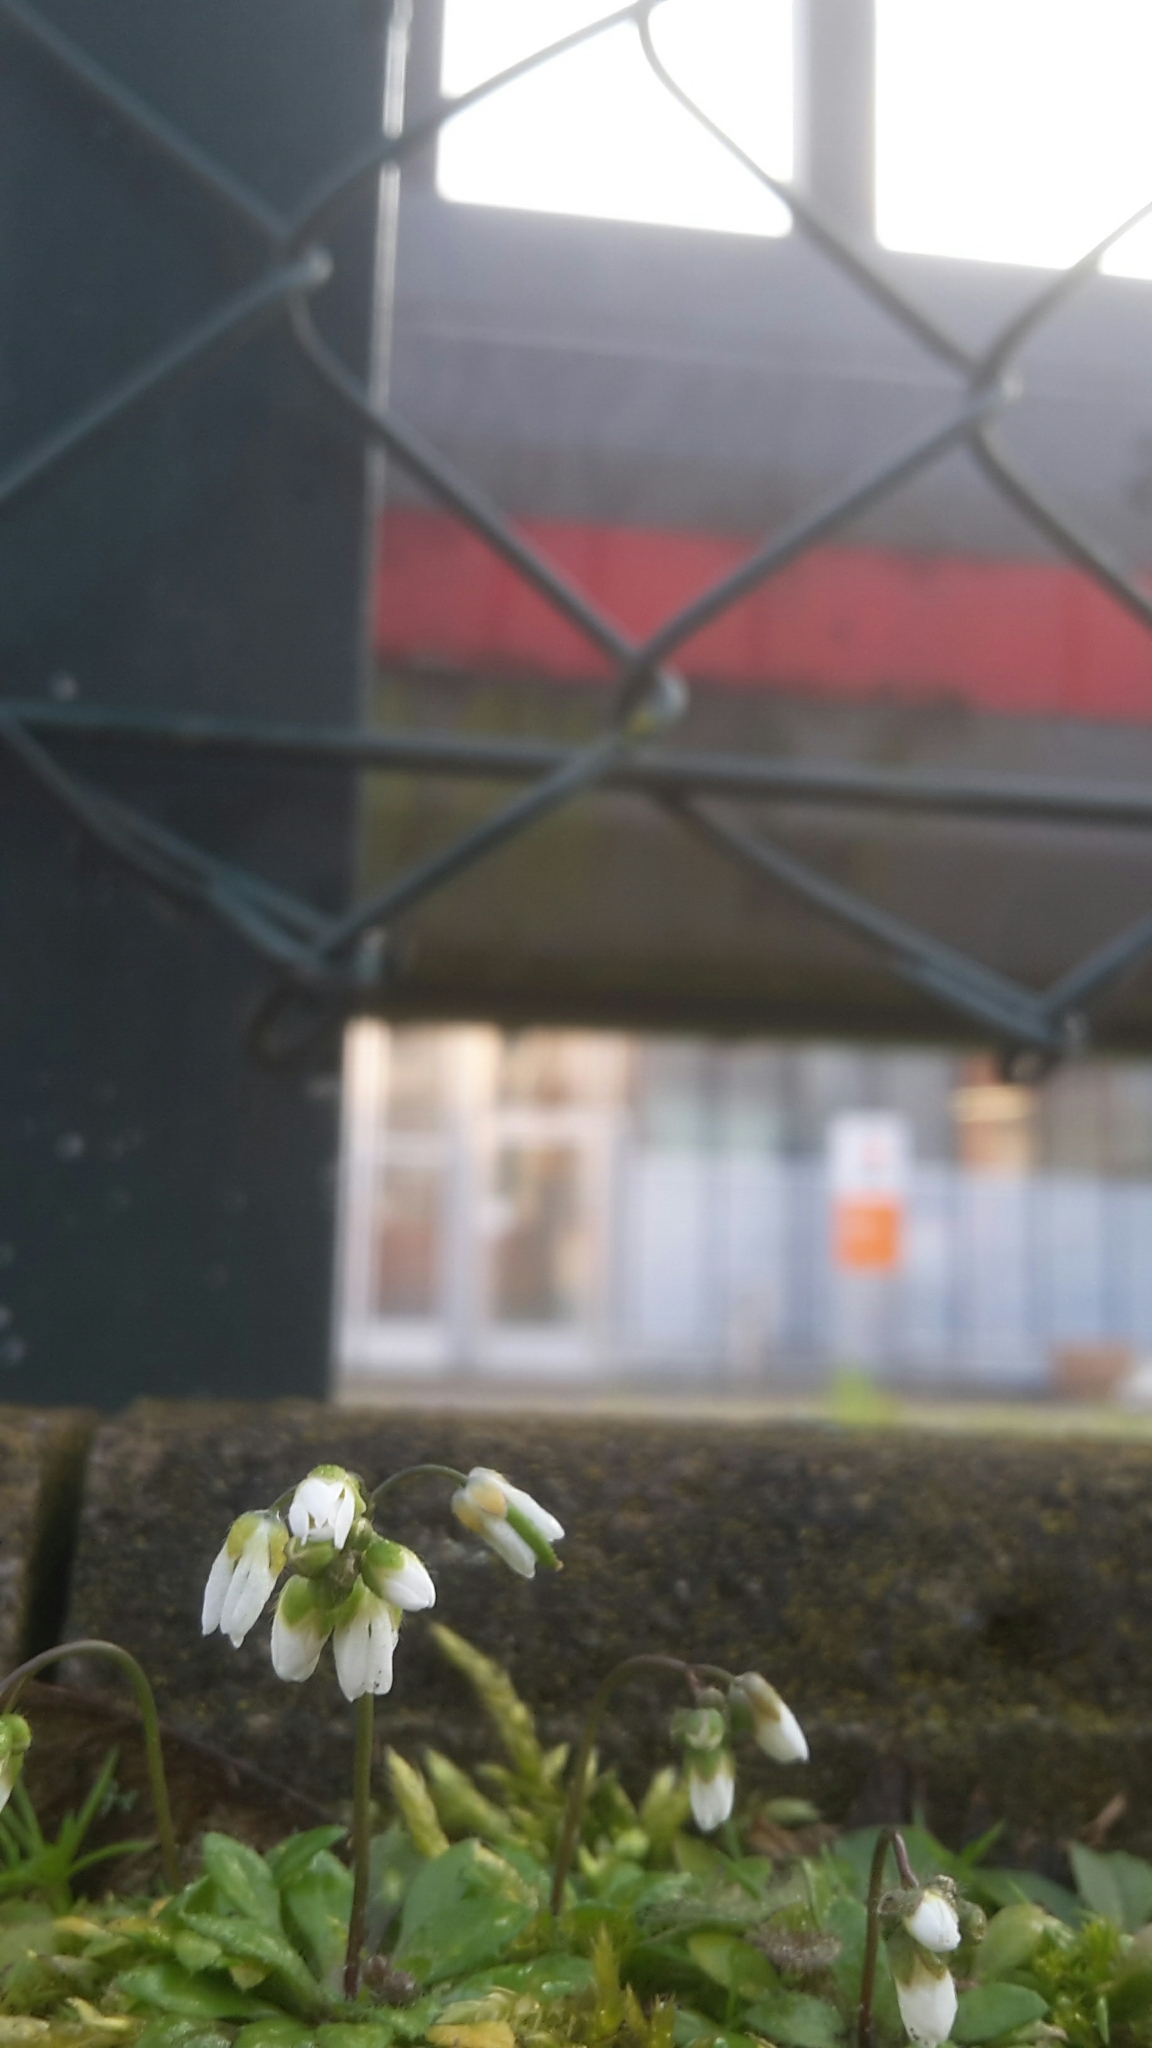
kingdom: Plantae
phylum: Tracheophyta
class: Magnoliopsida
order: Brassicales
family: Brassicaceae
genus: Draba
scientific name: Draba verna
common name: Spring draba
